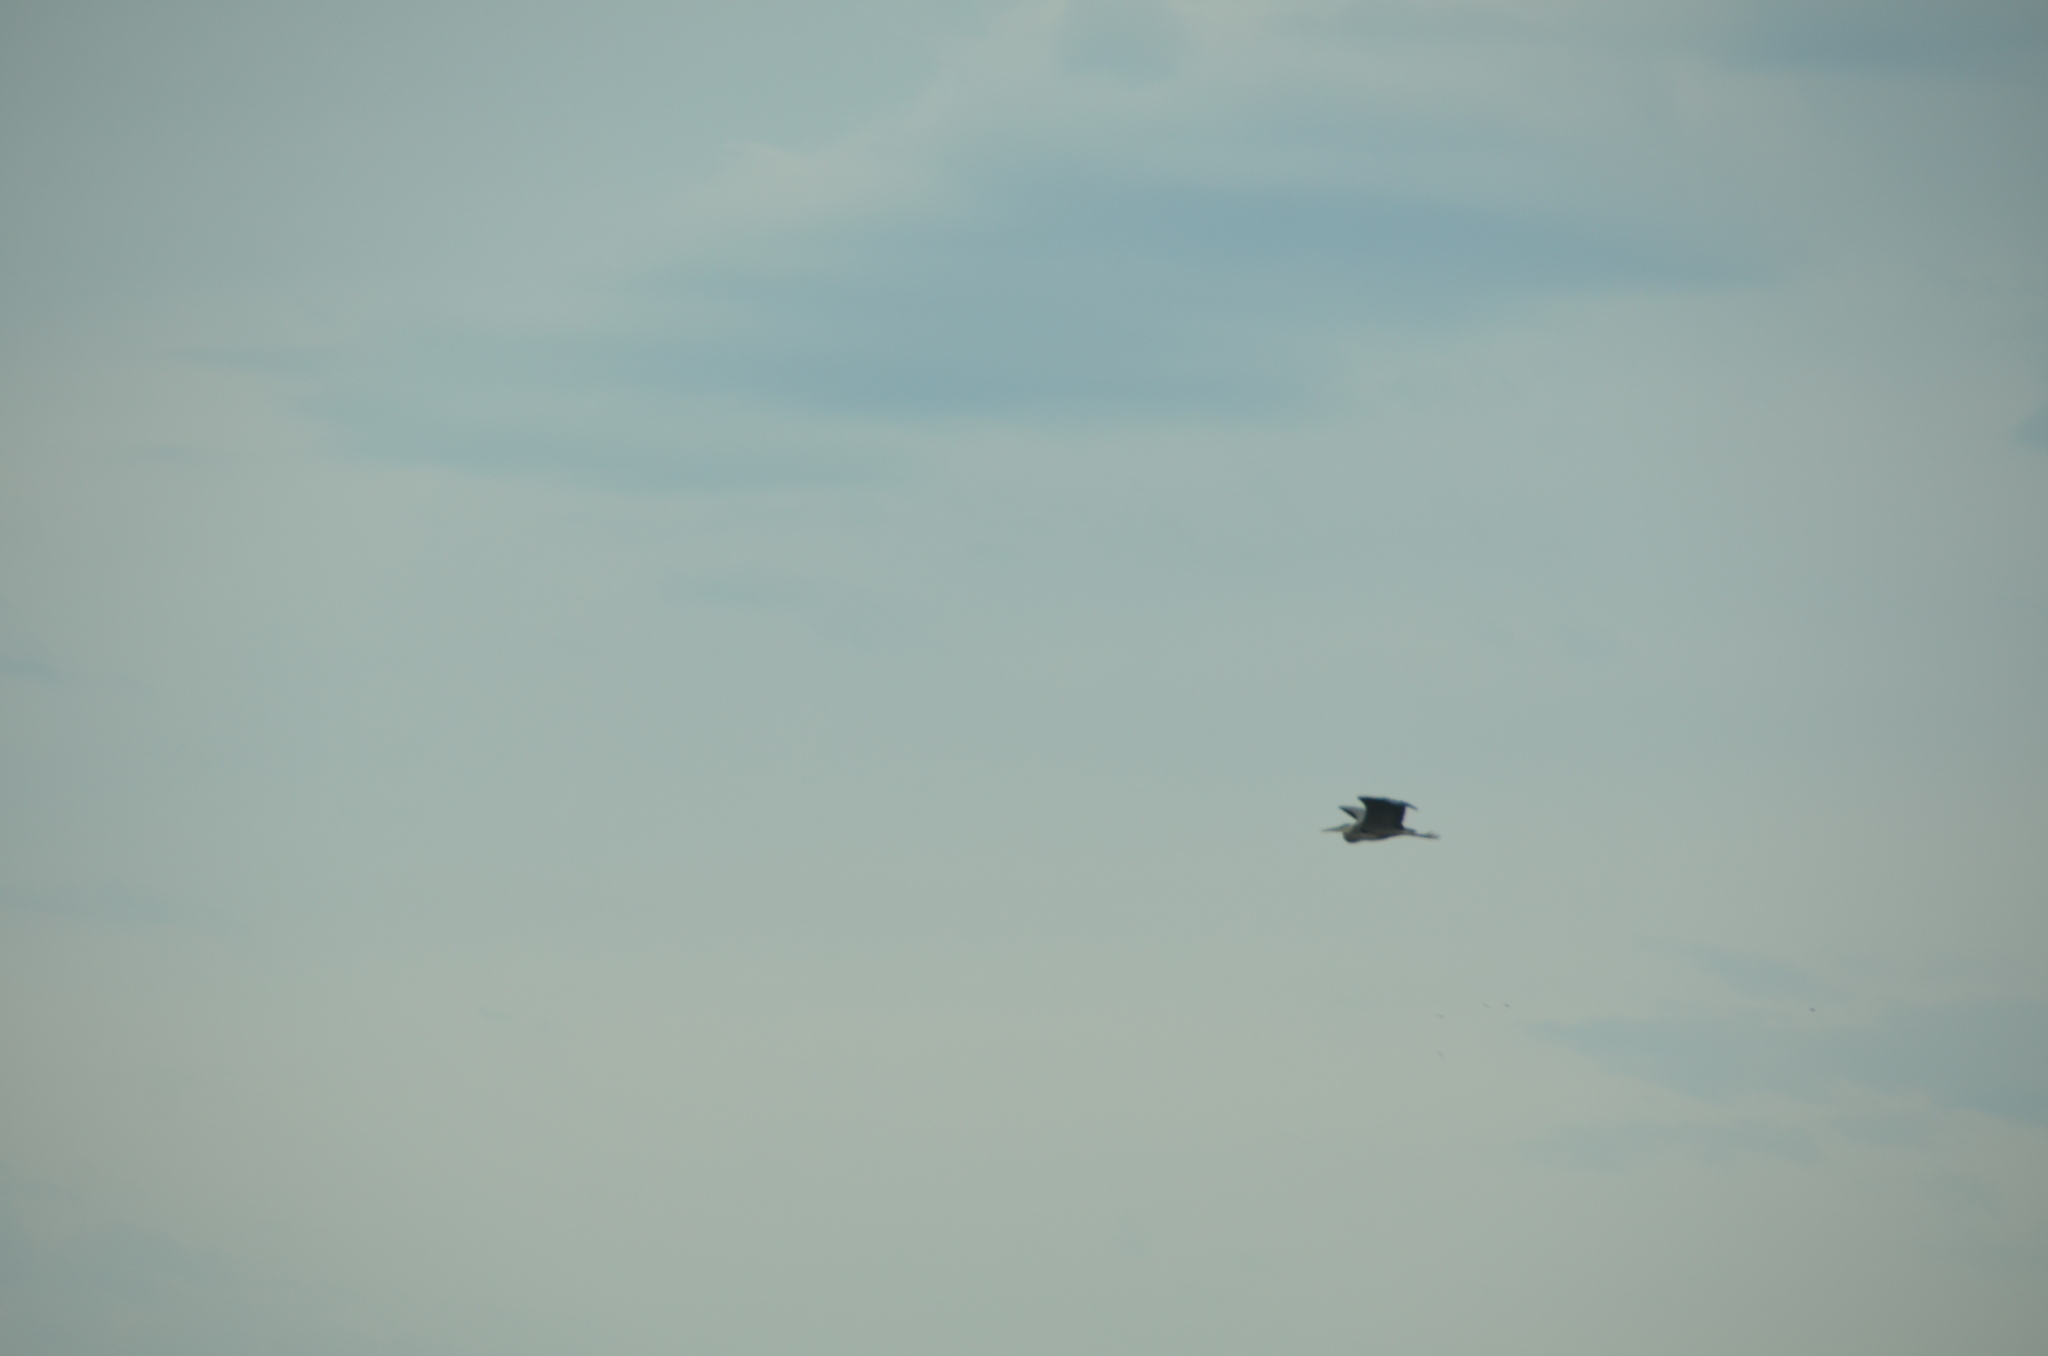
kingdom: Animalia
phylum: Chordata
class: Aves
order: Pelecaniformes
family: Ardeidae
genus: Ardea
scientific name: Ardea herodias
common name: Great blue heron
